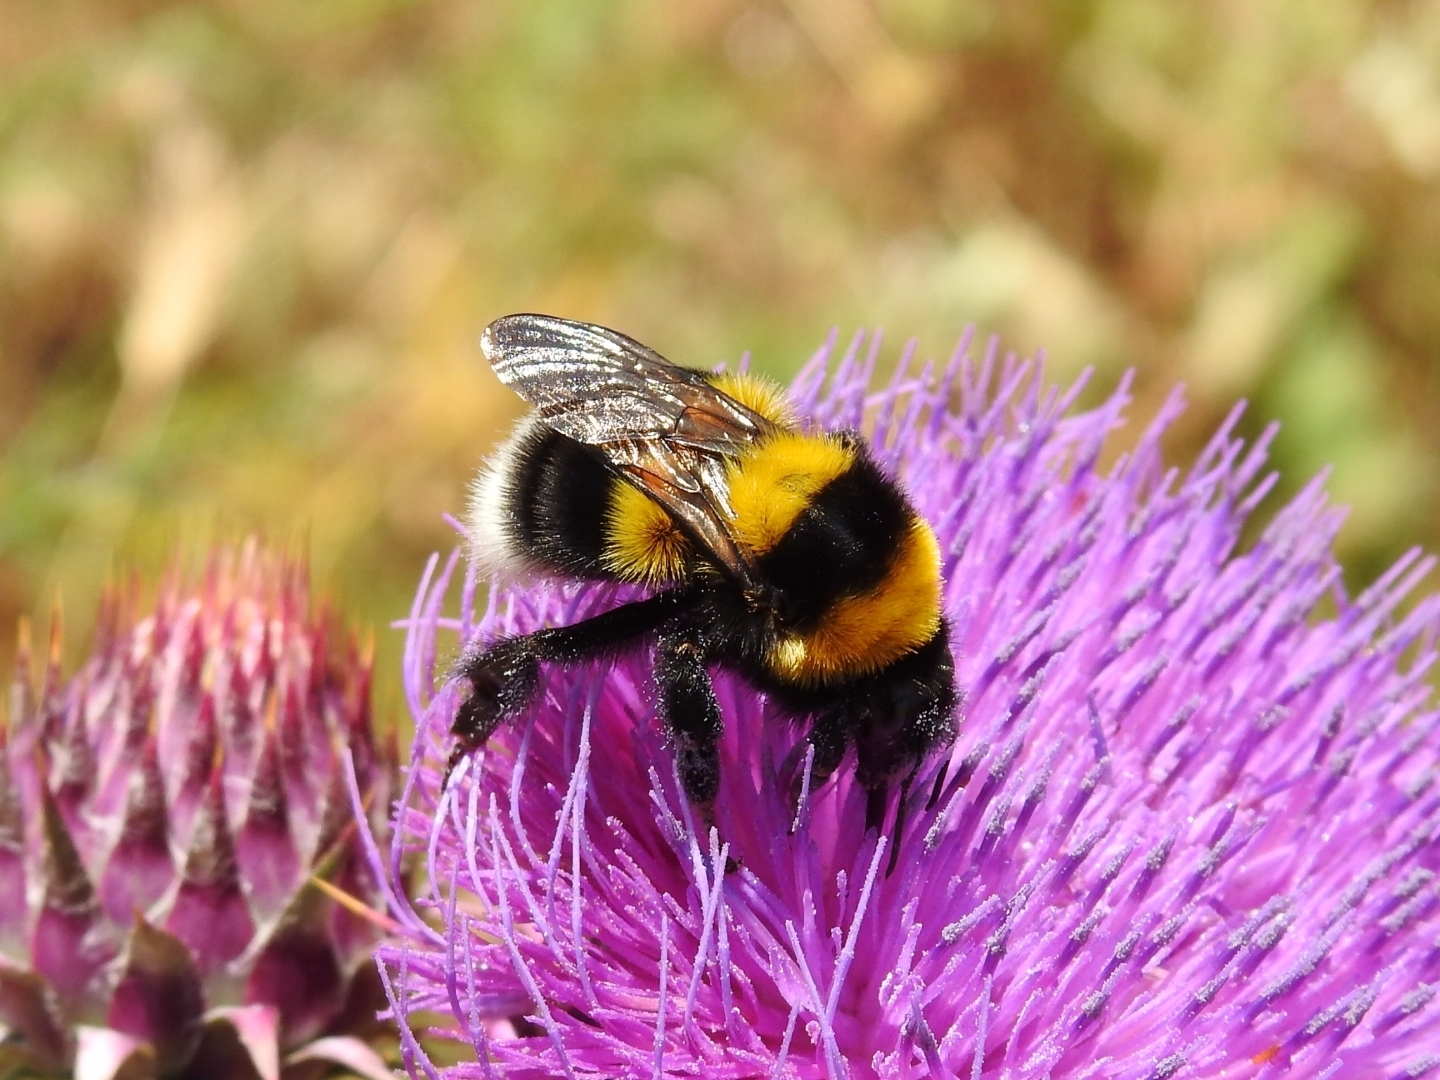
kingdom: Animalia
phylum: Arthropoda
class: Insecta
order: Hymenoptera
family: Apidae
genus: Bombus
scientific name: Bombus ruderatus
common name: Large garden bumblebee
